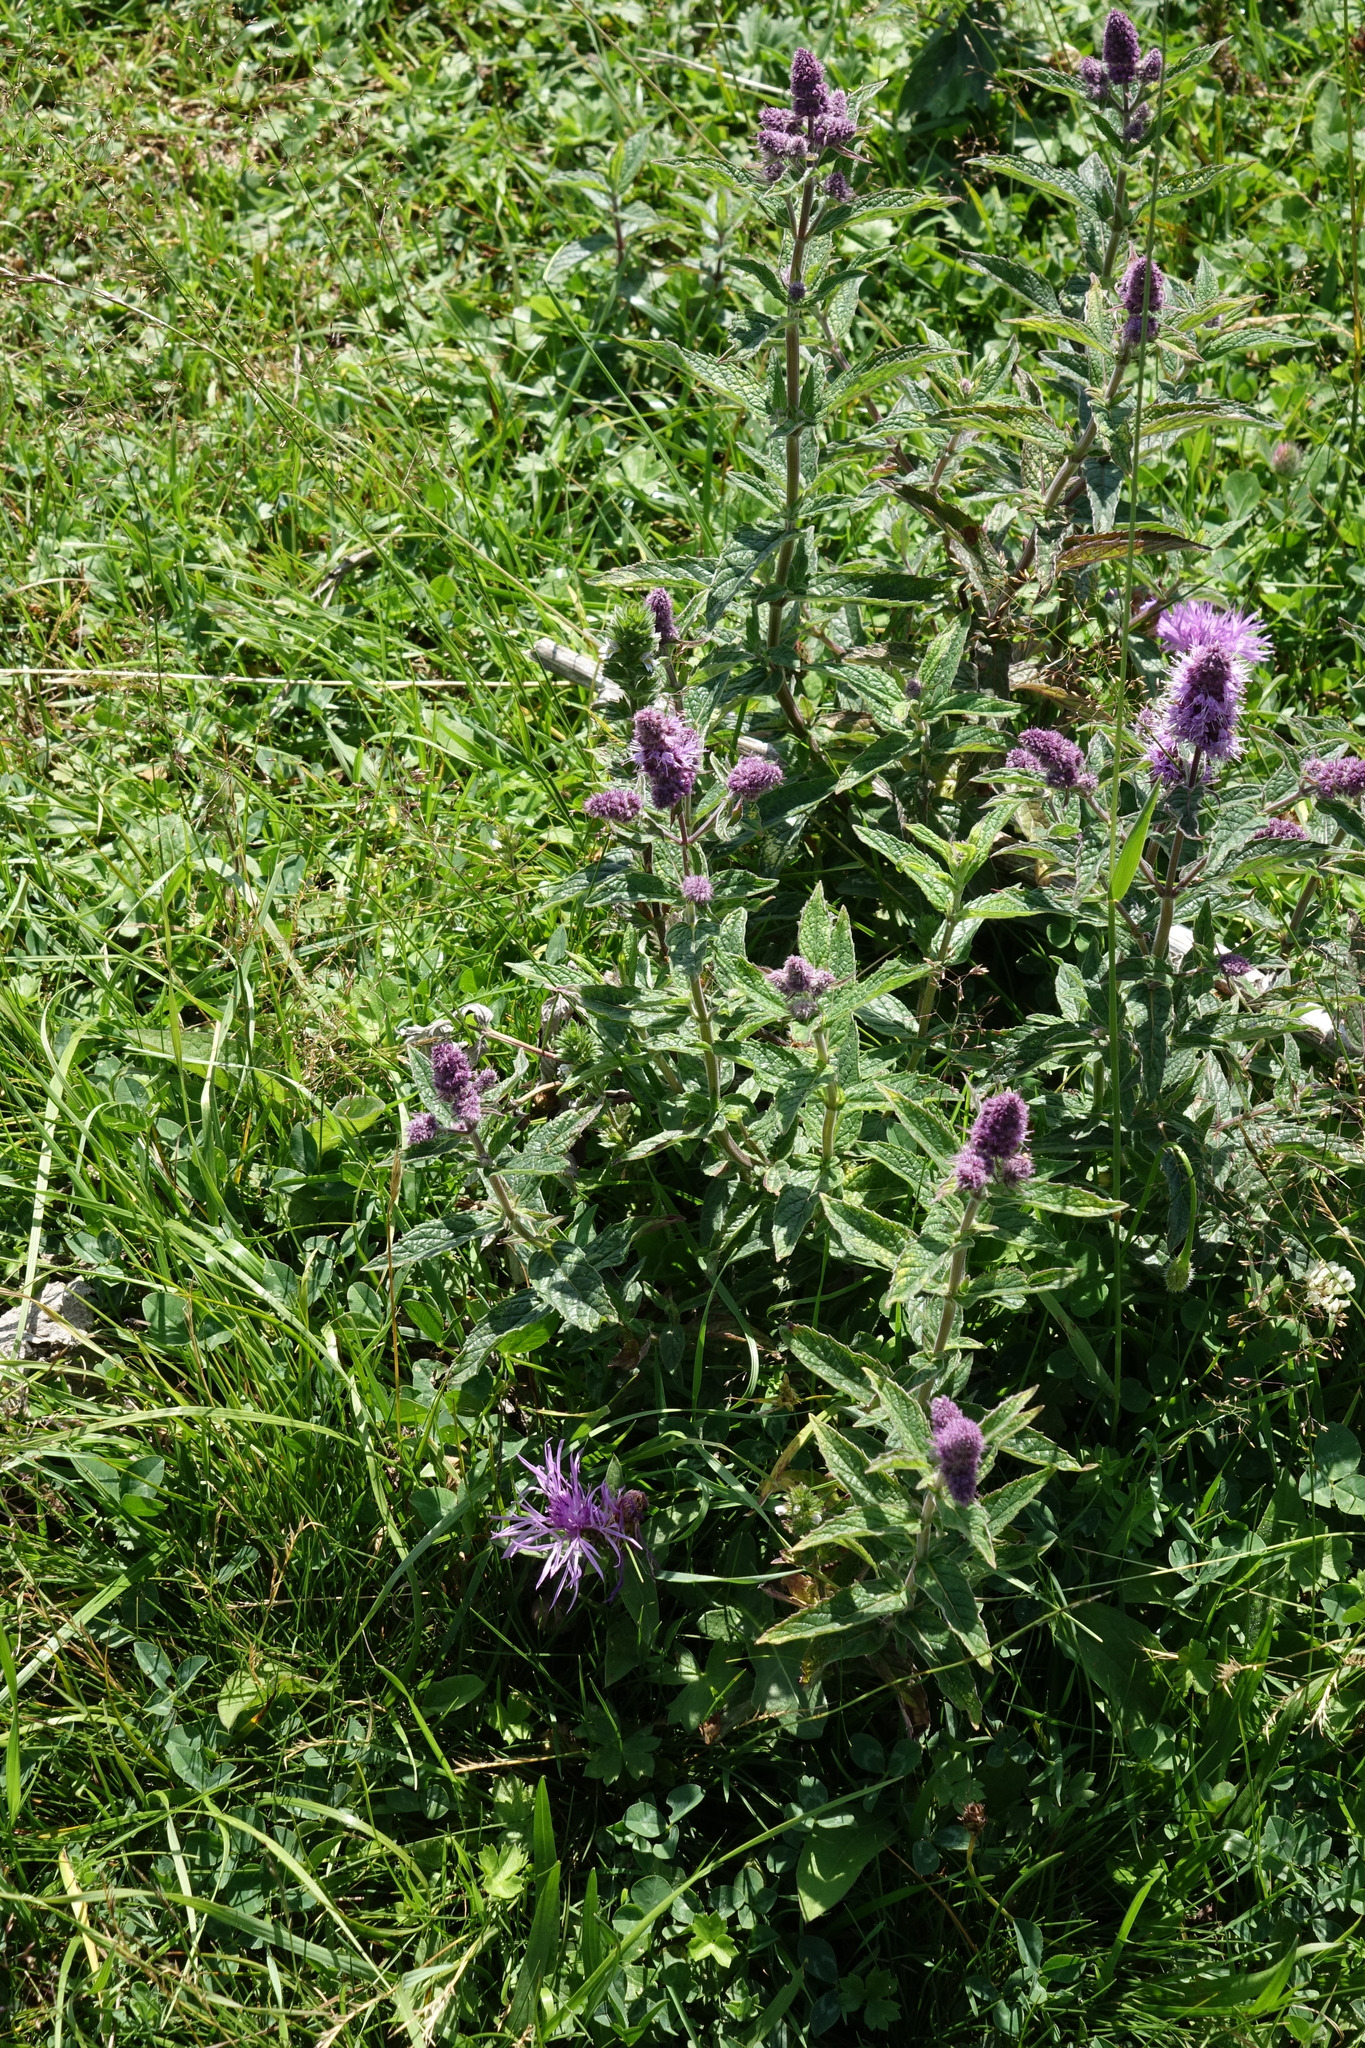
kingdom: Plantae
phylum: Tracheophyta
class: Magnoliopsida
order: Lamiales
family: Lamiaceae
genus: Mentha
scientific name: Mentha longifolia
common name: Horse mint
